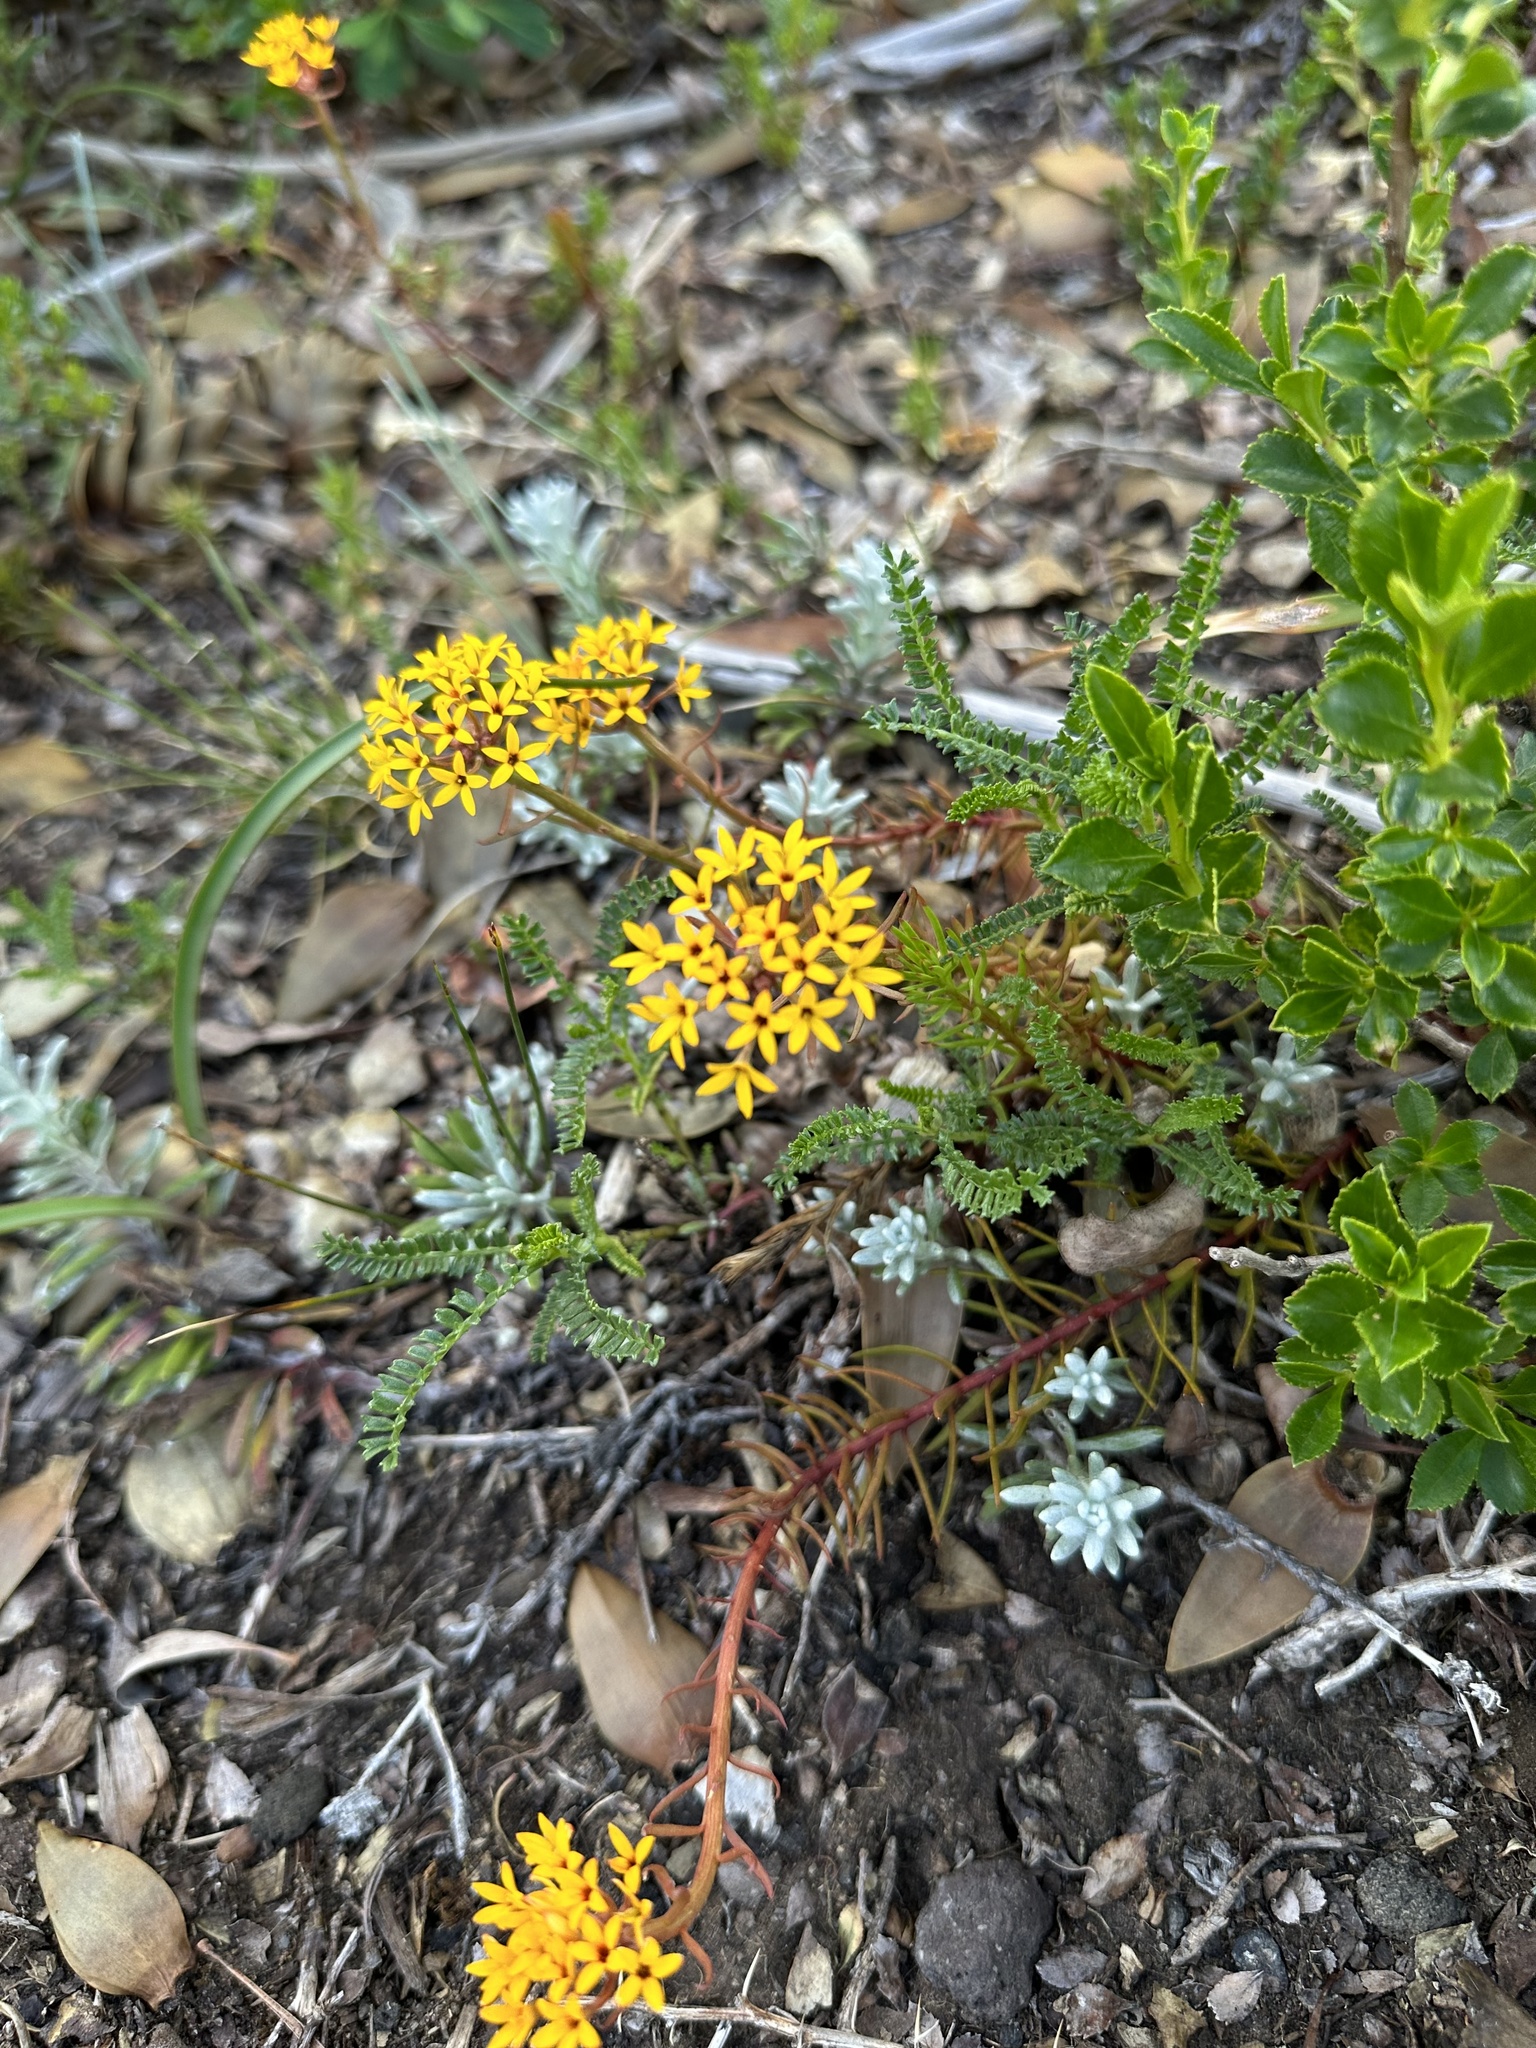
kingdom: Plantae
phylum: Tracheophyta
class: Magnoliopsida
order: Santalales
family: Schoepfiaceae
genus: Quinchamalium
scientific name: Quinchamalium chilense
